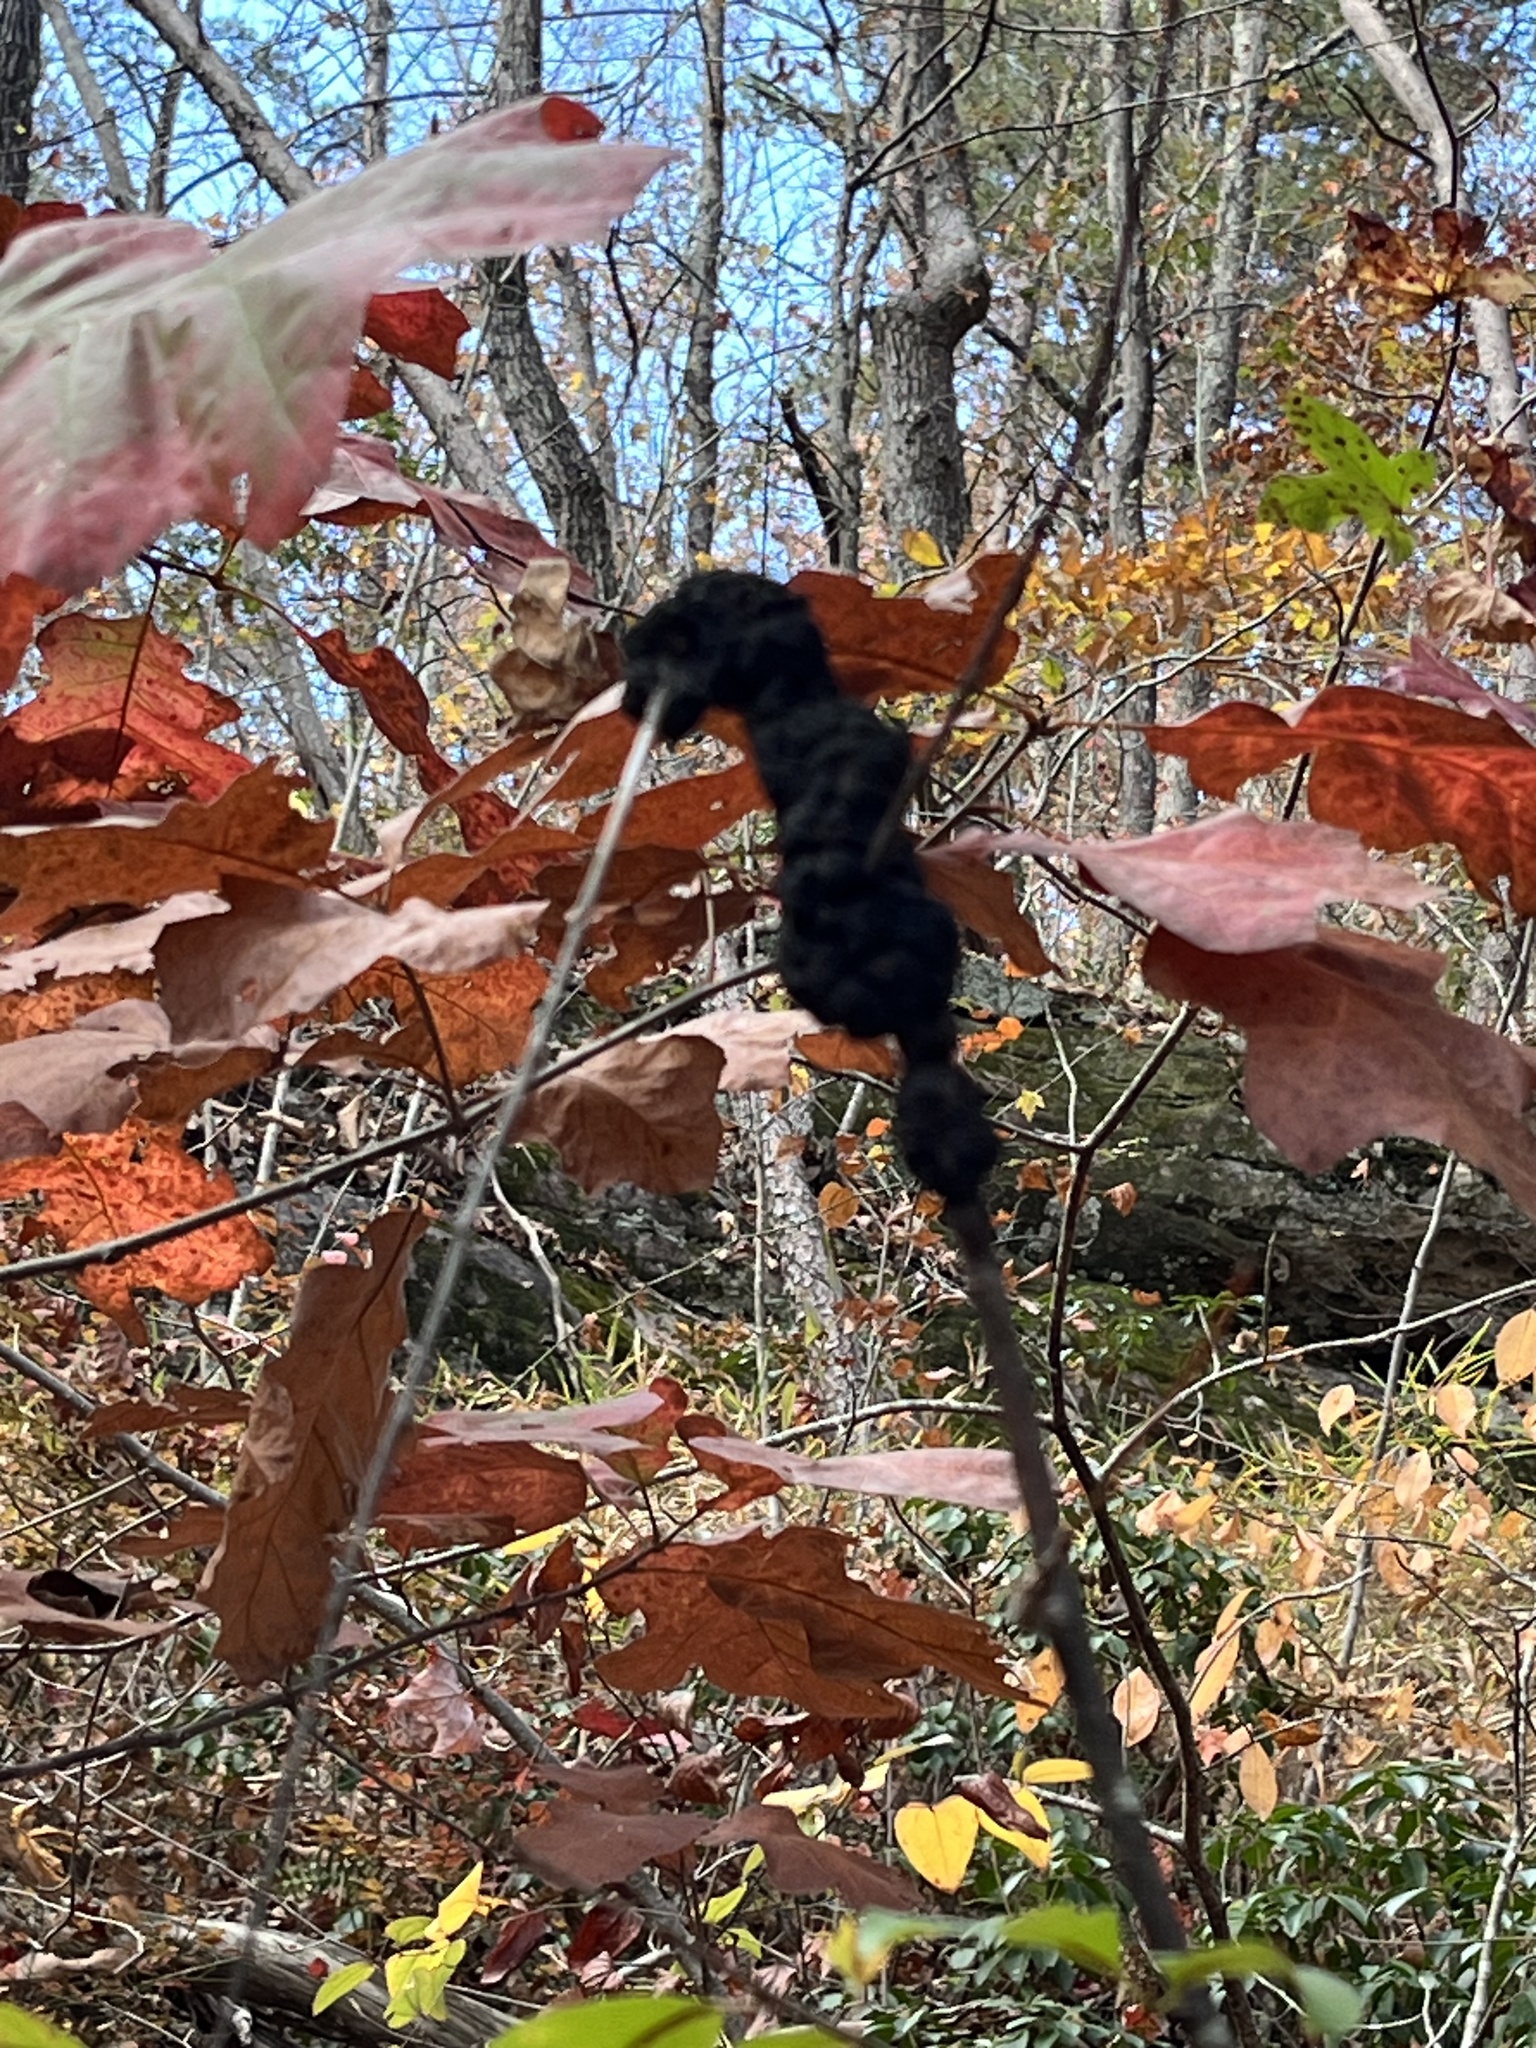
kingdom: Fungi
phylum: Ascomycota
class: Dothideomycetes
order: Venturiales
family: Venturiaceae
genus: Apiosporina
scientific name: Apiosporina morbosa
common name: Black knot
